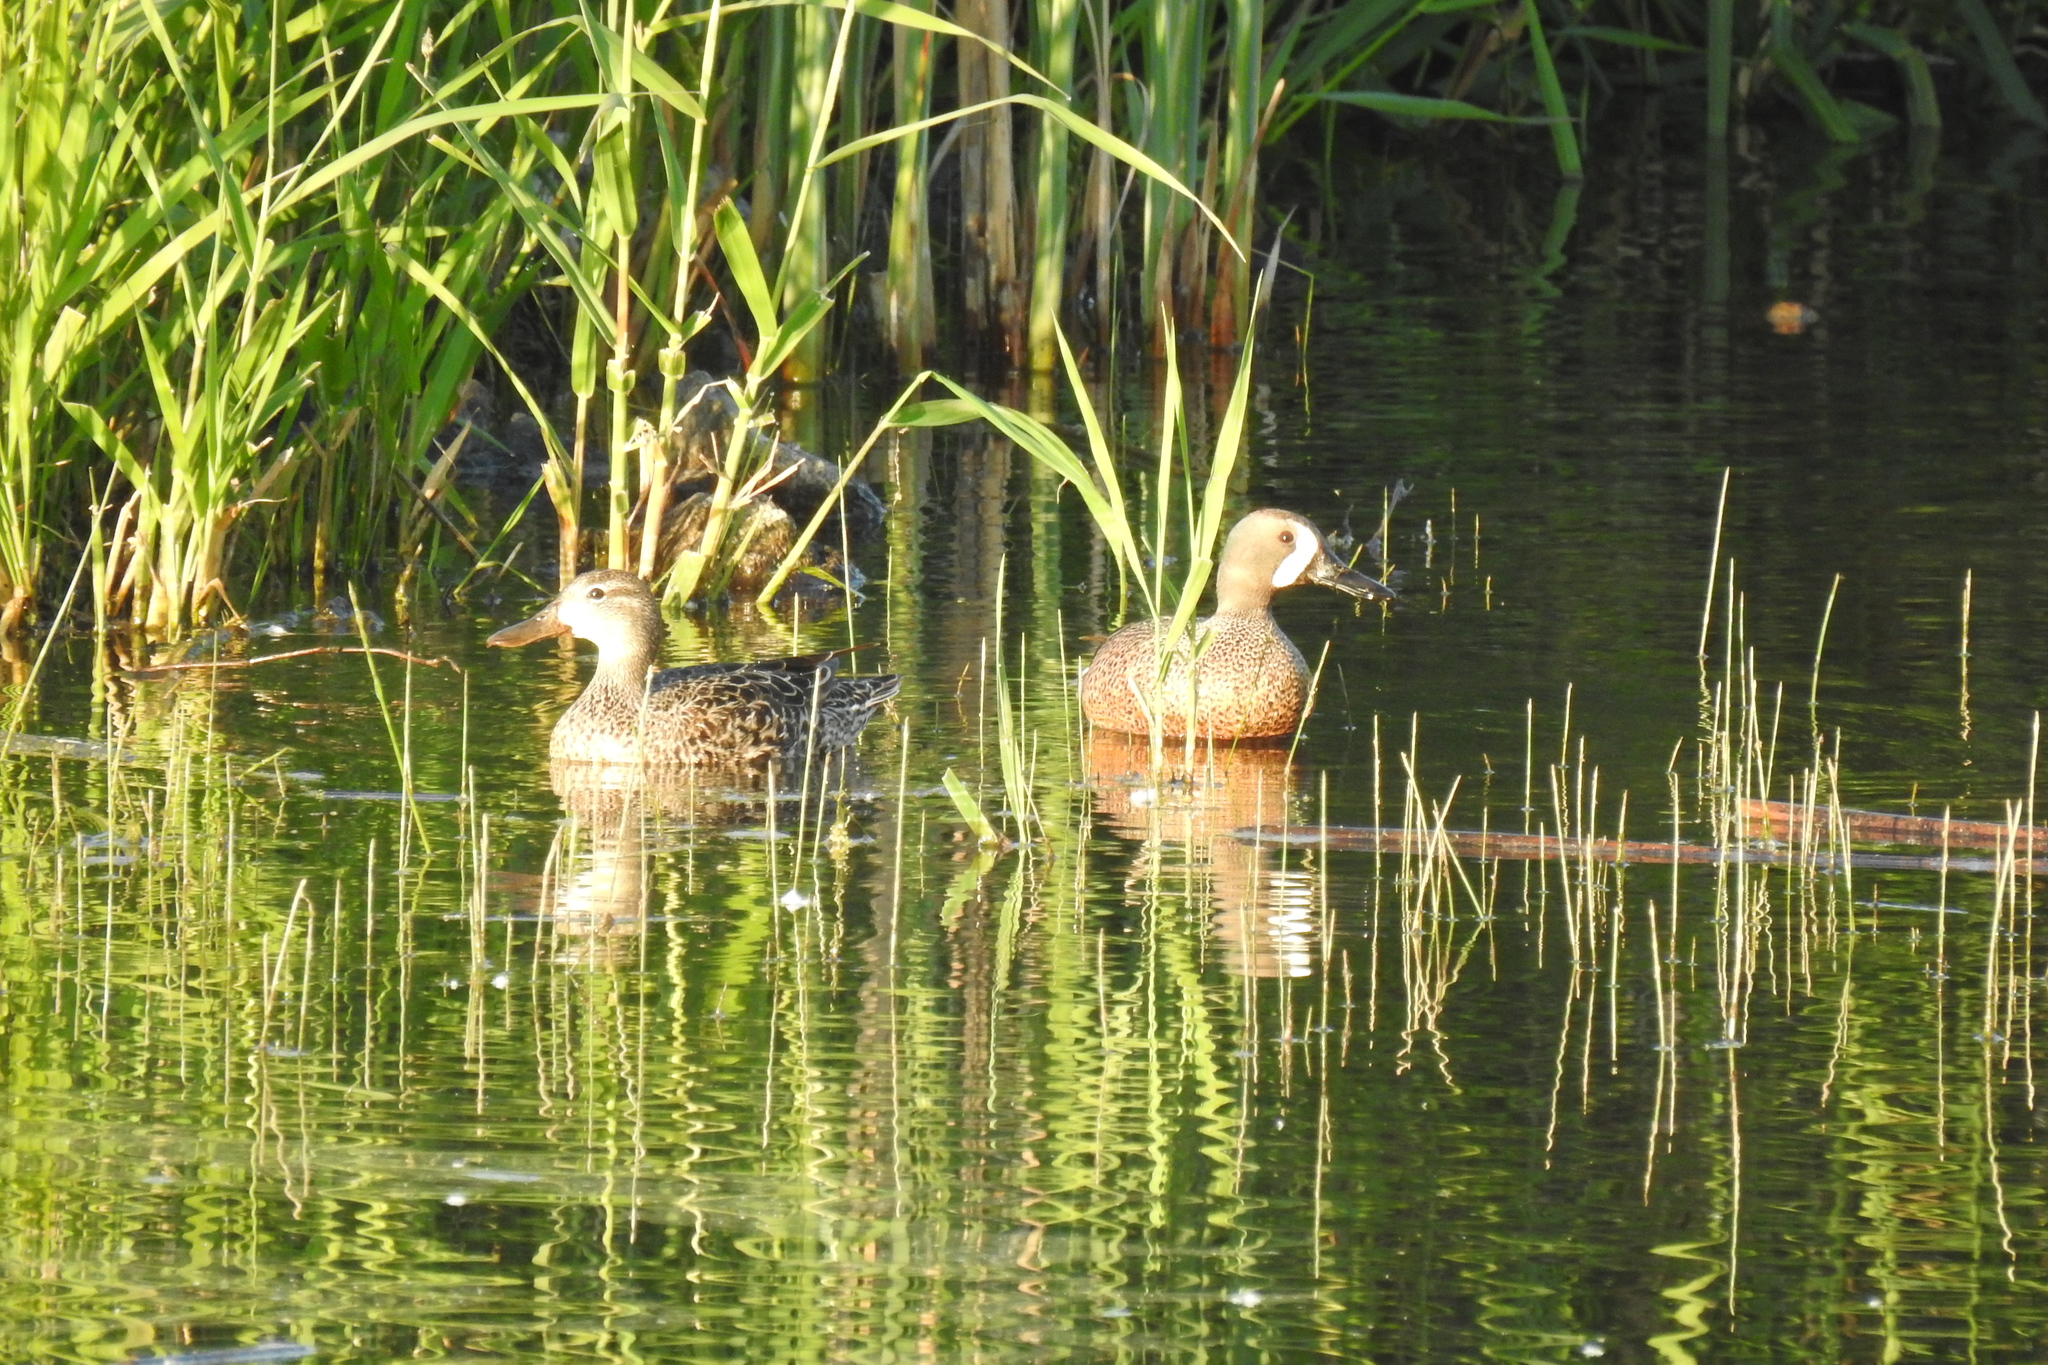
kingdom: Animalia
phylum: Chordata
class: Aves
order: Anseriformes
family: Anatidae
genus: Spatula
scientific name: Spatula discors
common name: Blue-winged teal
